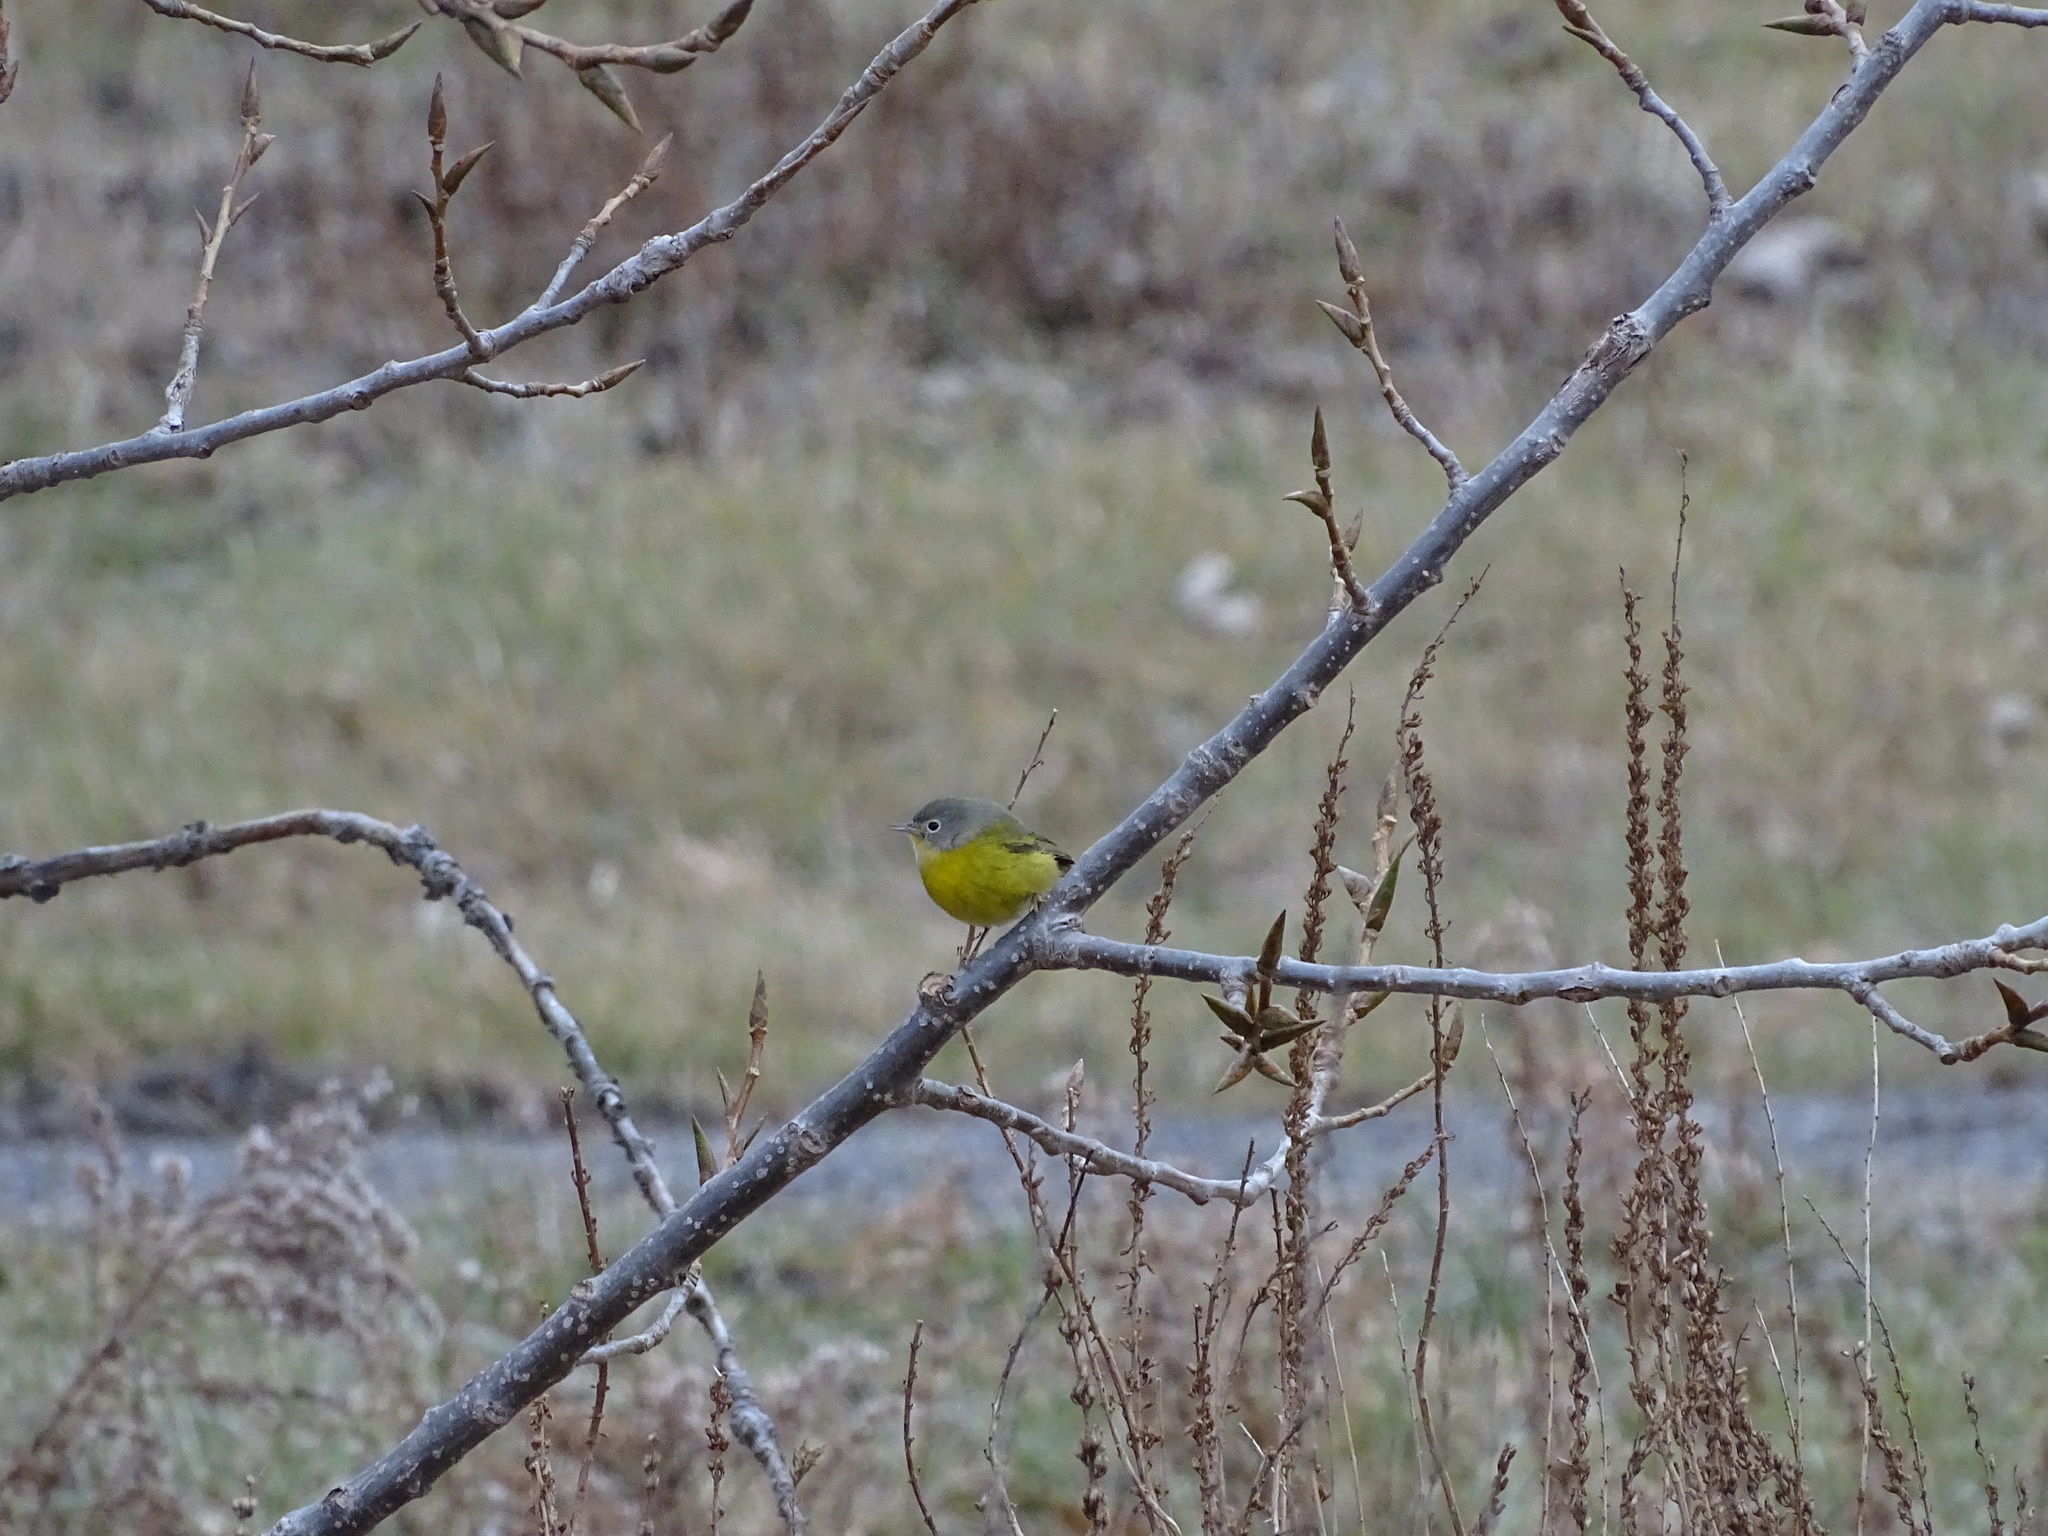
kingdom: Animalia
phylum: Chordata
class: Aves
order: Passeriformes
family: Parulidae
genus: Leiothlypis
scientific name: Leiothlypis ruficapilla
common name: Nashville warbler
